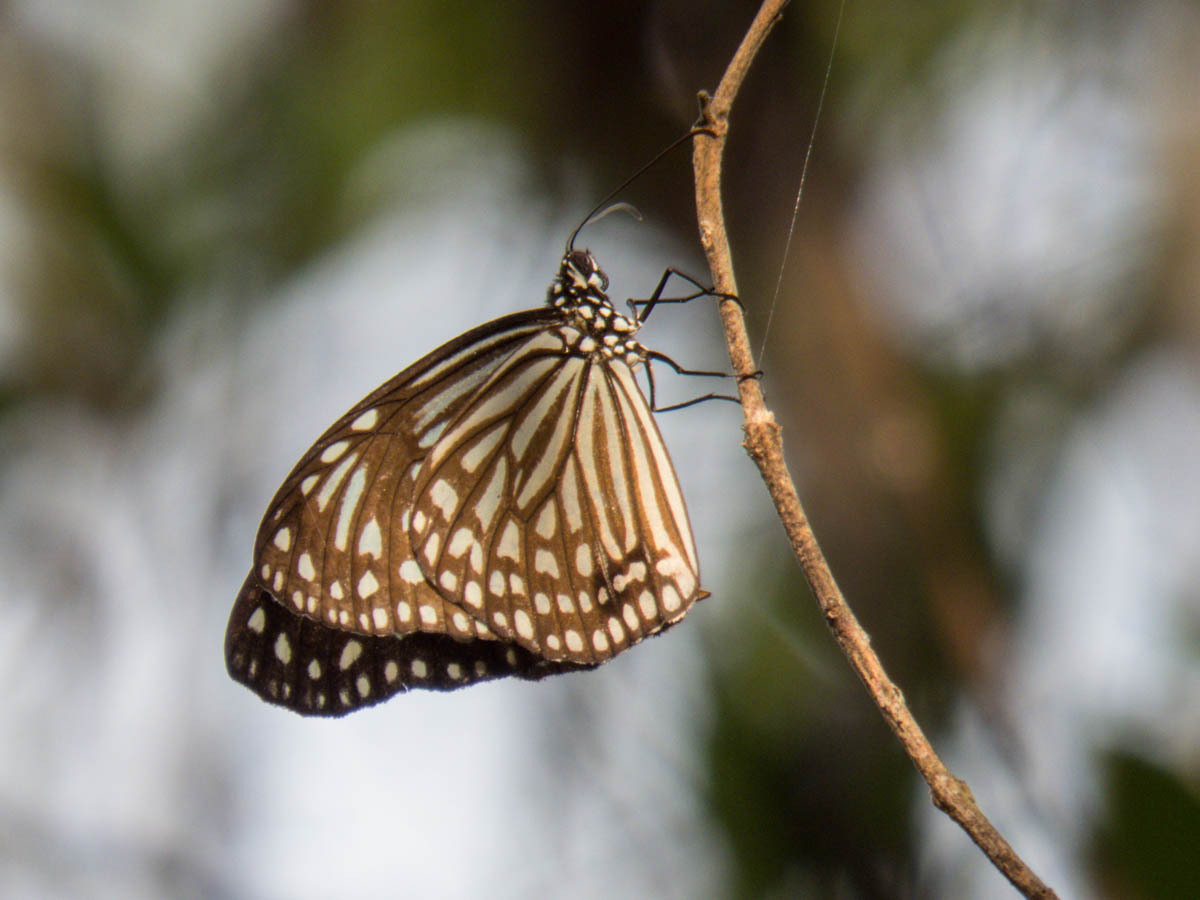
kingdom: Animalia
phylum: Arthropoda
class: Insecta
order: Lepidoptera
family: Nymphalidae
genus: Parantica
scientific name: Parantica agleoides
